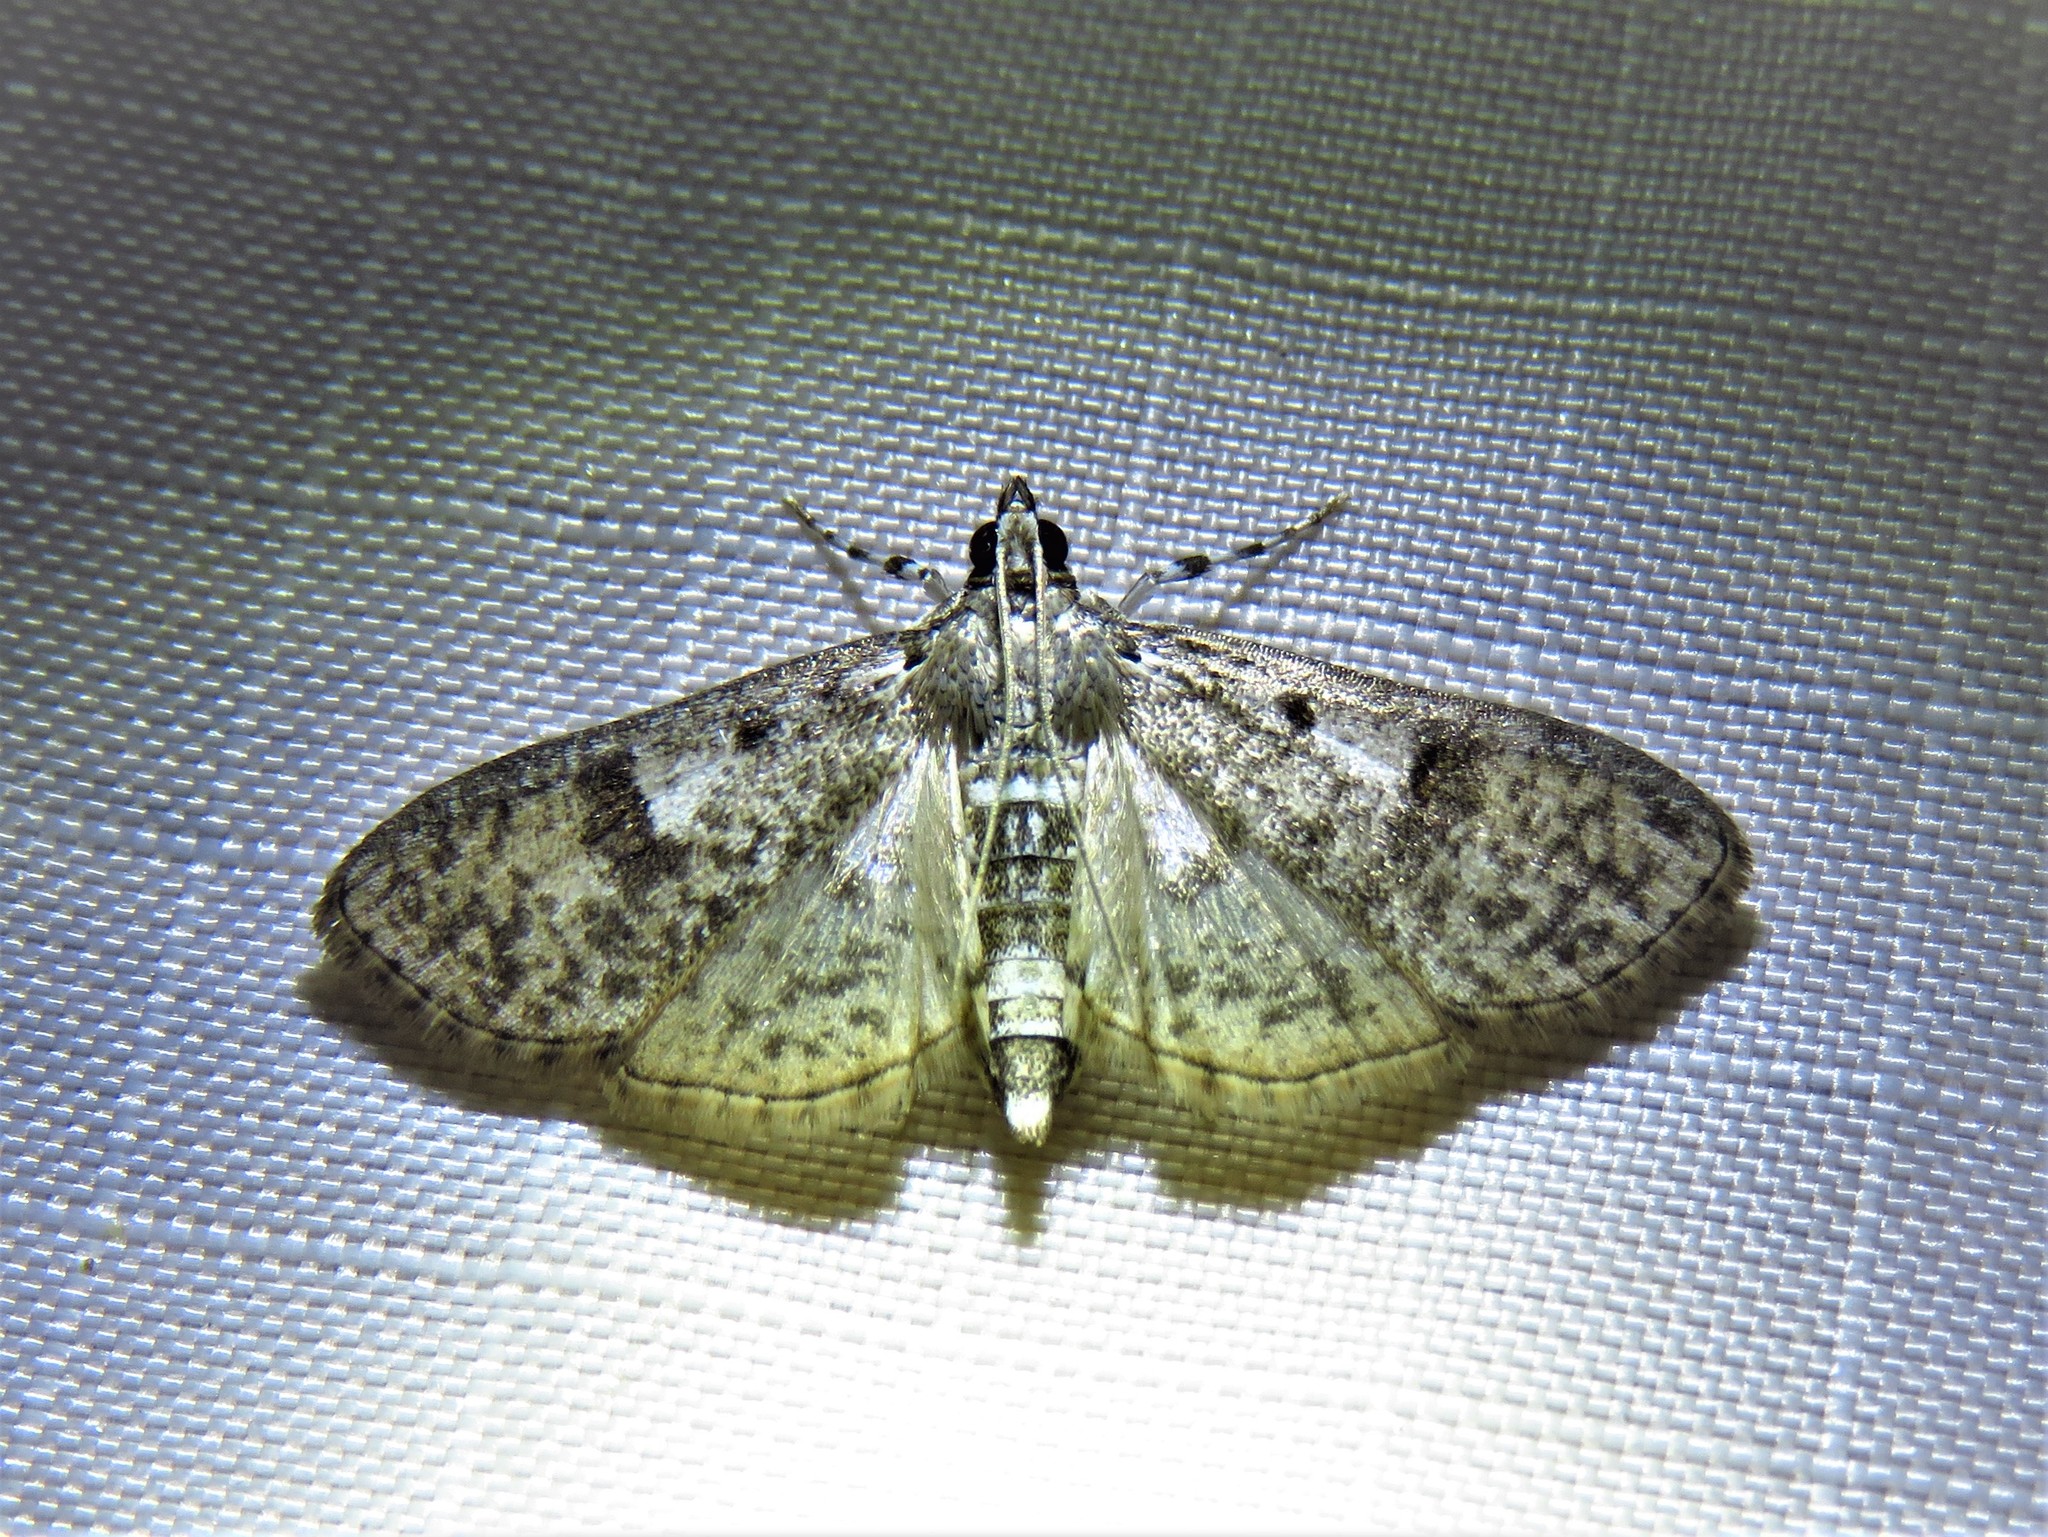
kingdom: Animalia
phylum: Arthropoda
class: Insecta
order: Lepidoptera
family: Crambidae
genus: Palpita
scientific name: Palpita magniferalis
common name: Splendid palpita moth
